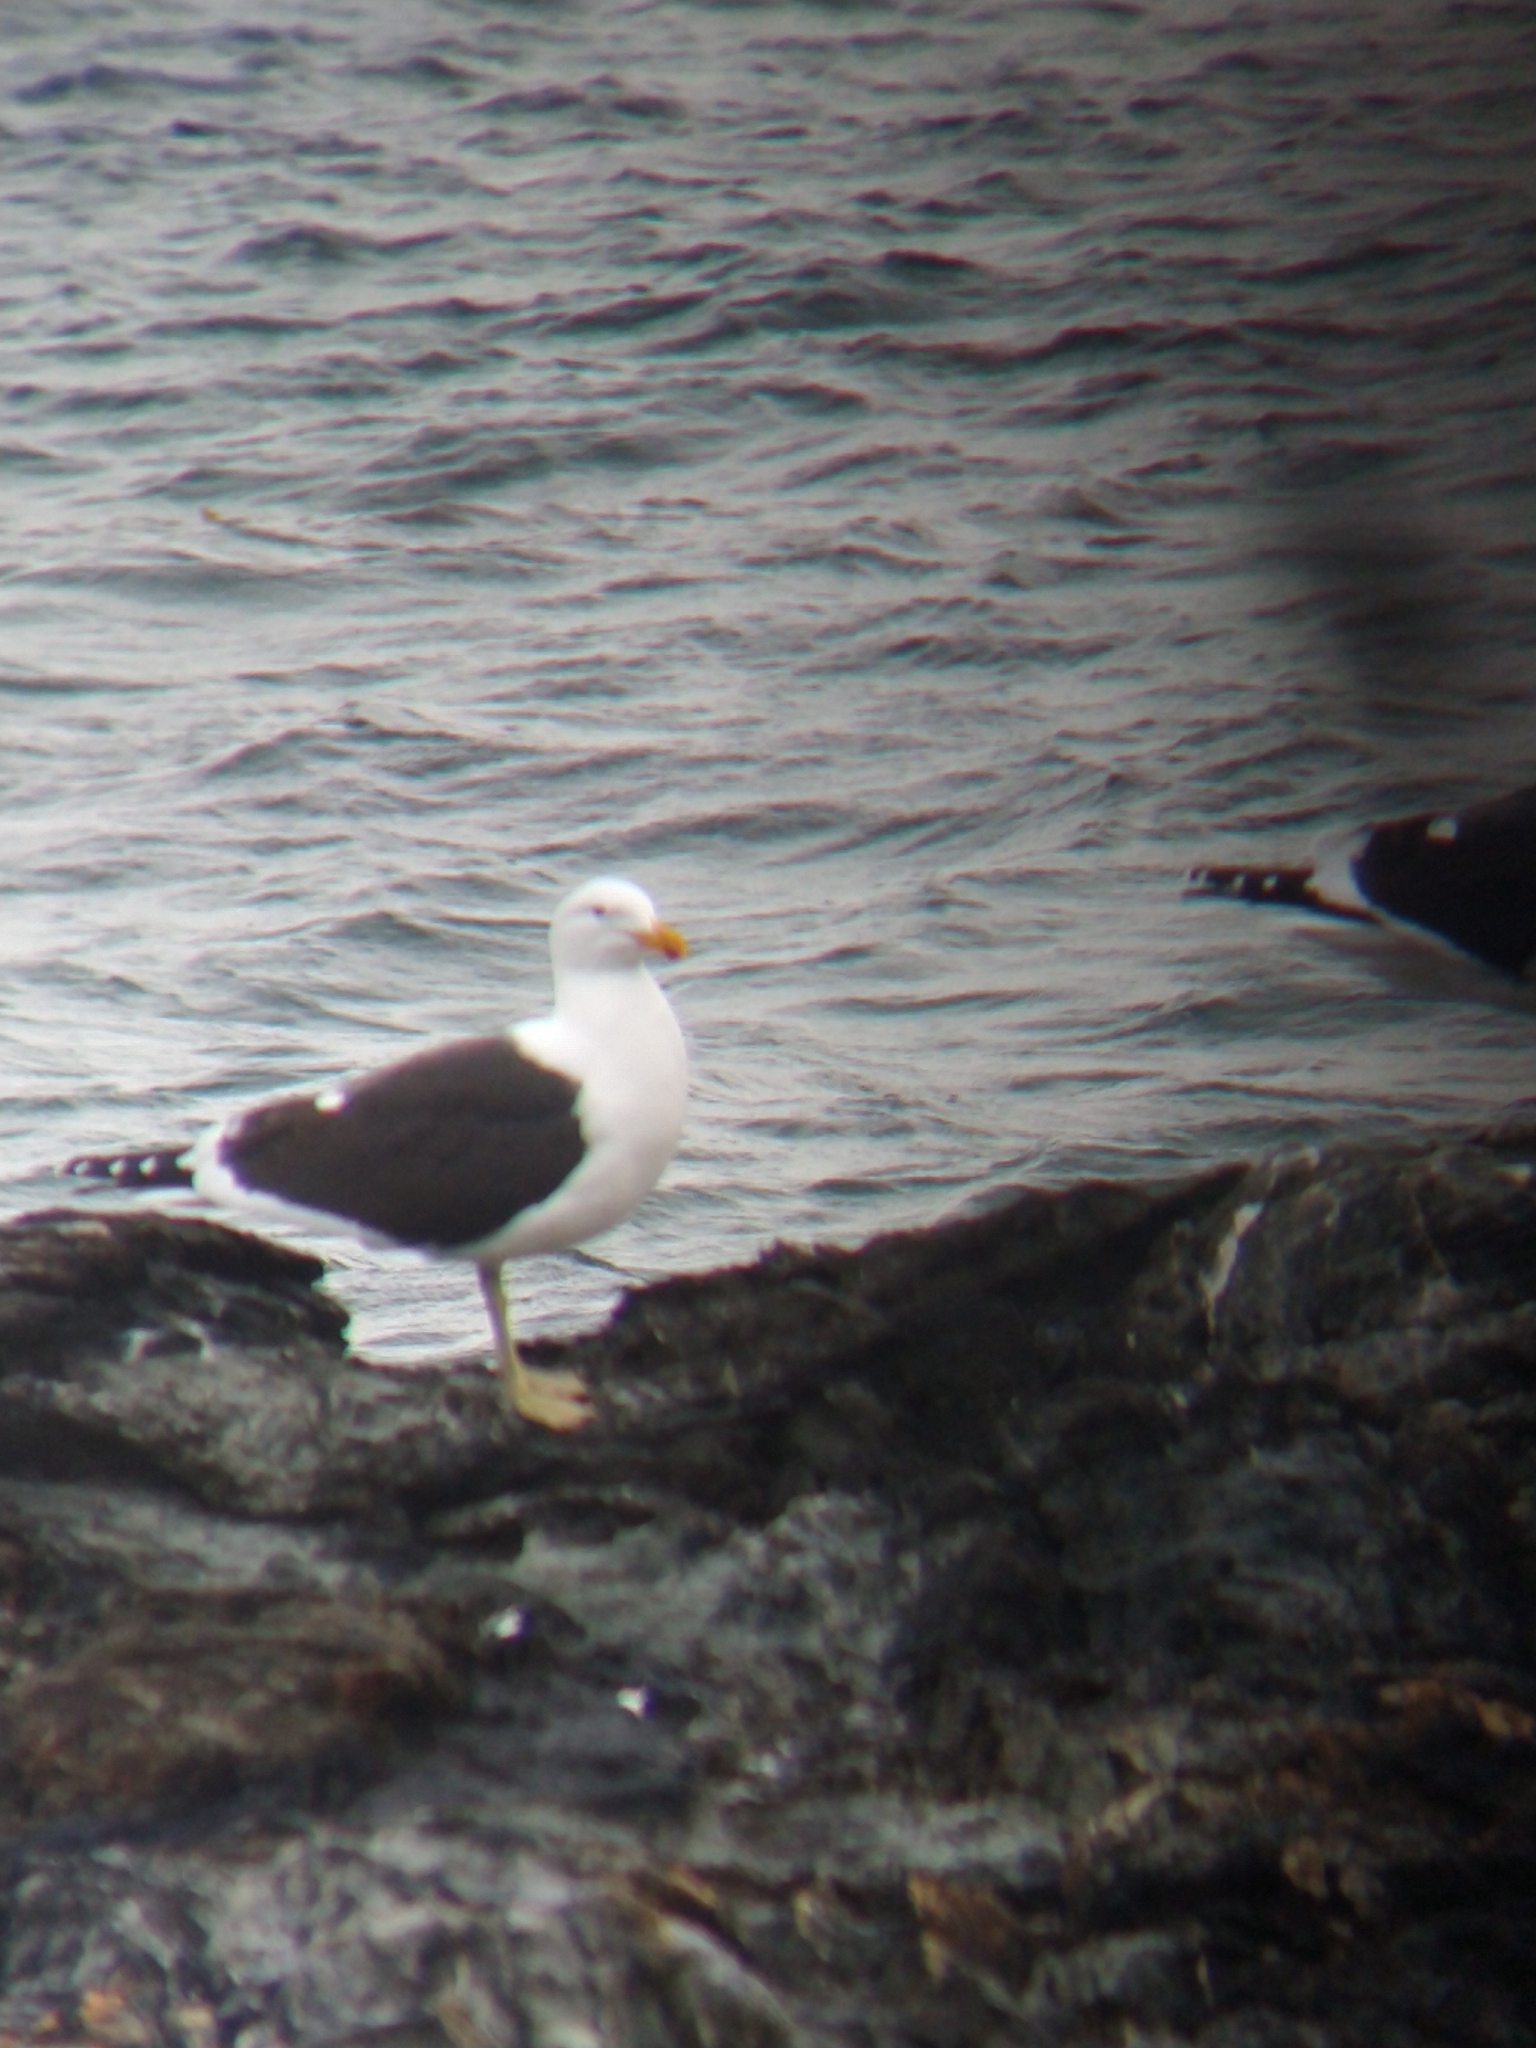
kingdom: Animalia
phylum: Chordata
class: Aves
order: Charadriiformes
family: Laridae
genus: Larus
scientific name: Larus dominicanus
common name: Kelp gull
